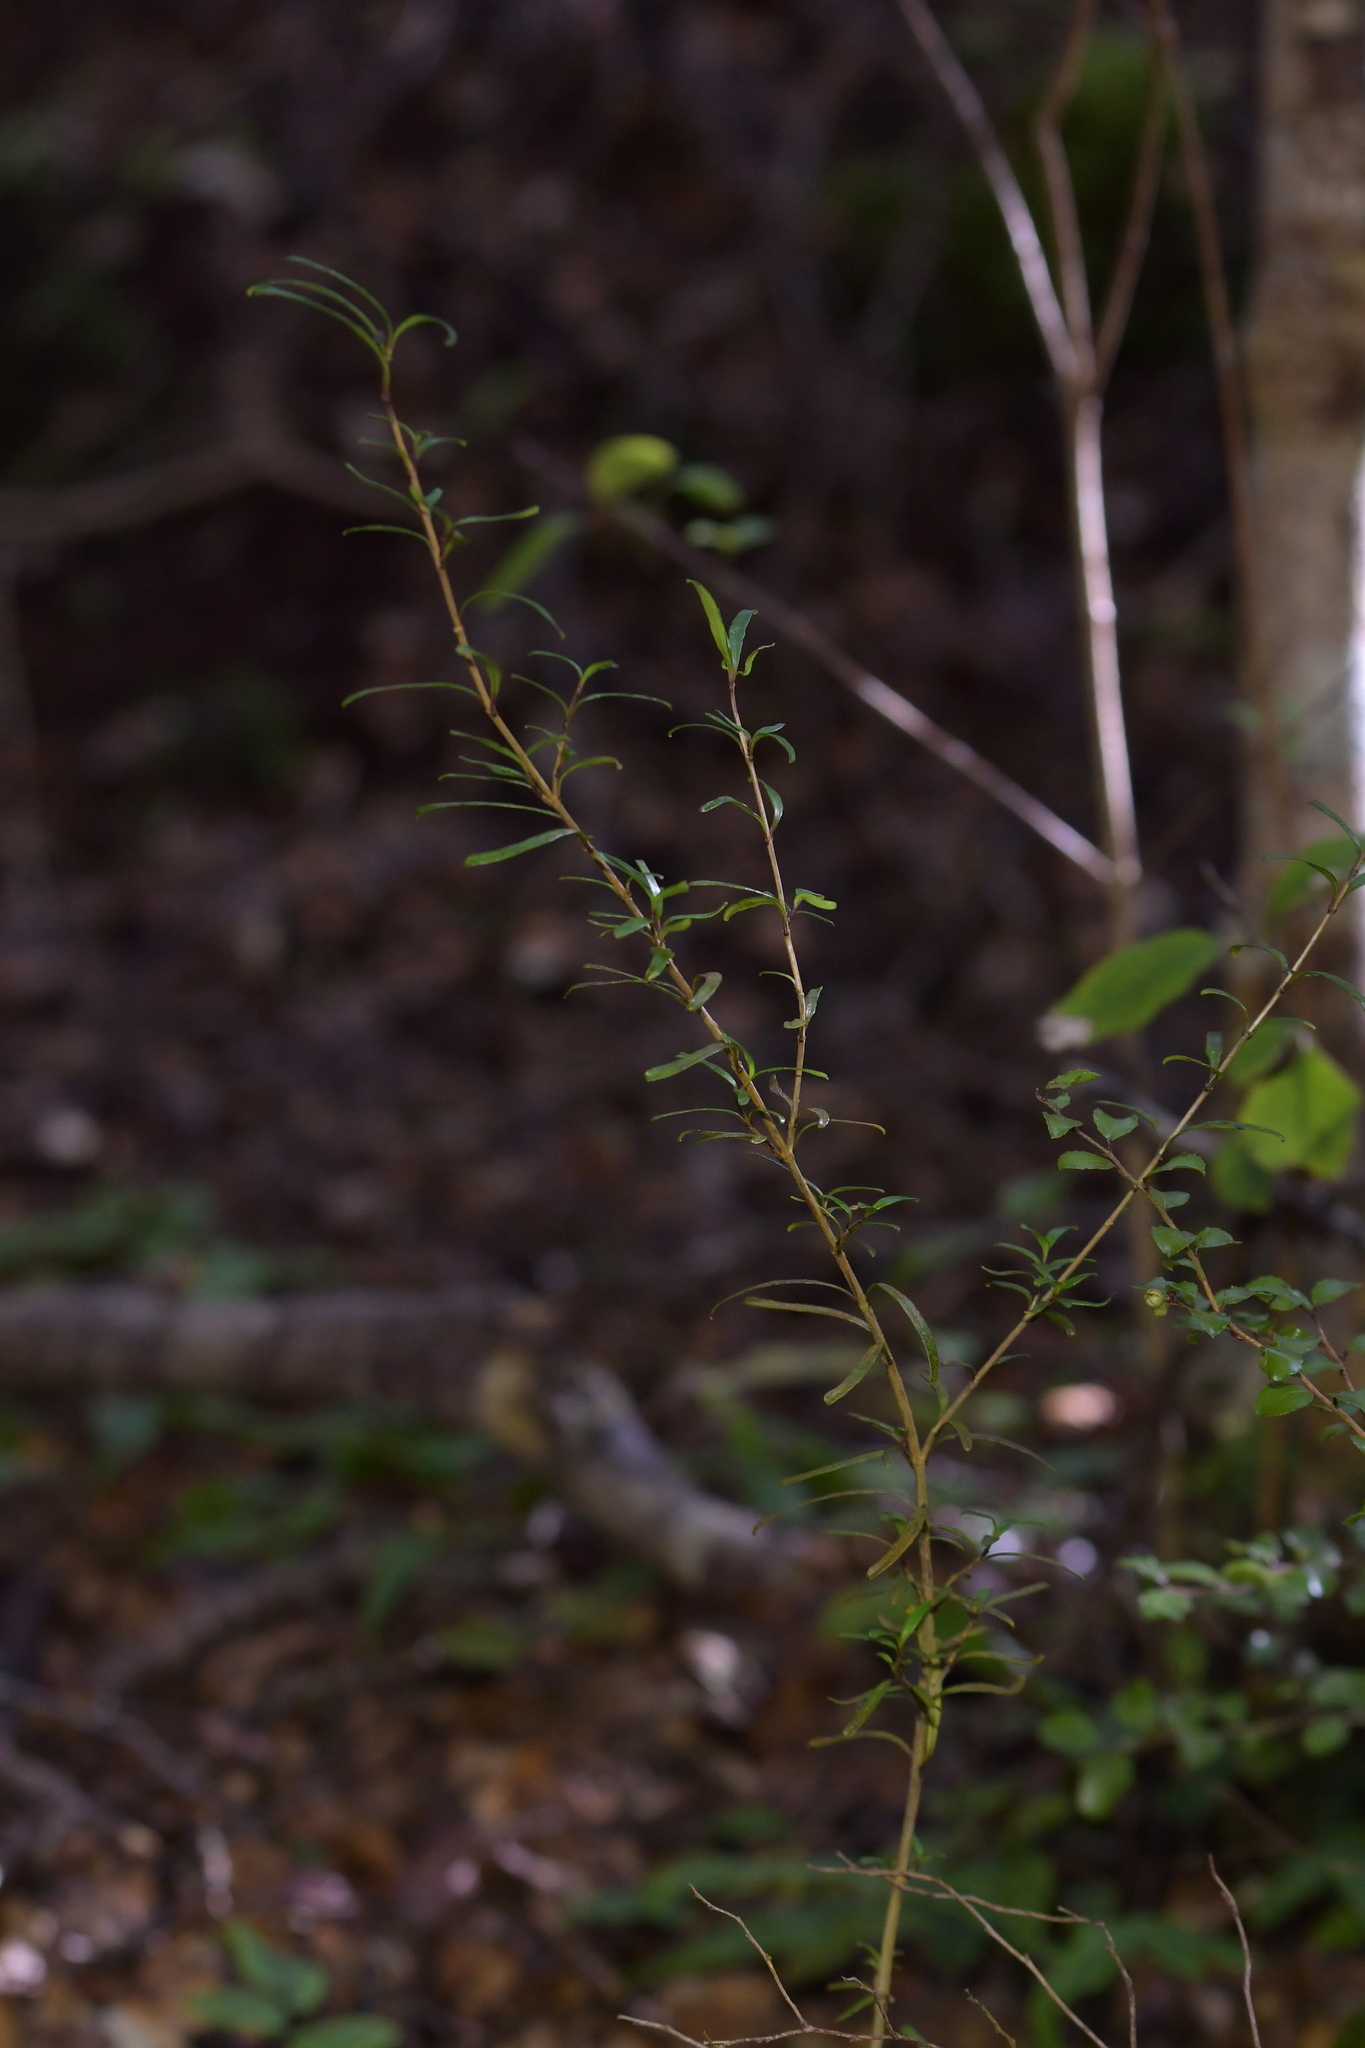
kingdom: Plantae
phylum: Tracheophyta
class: Magnoliopsida
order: Gentianales
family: Rubiaceae
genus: Coprosma
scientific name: Coprosma linariifolia
